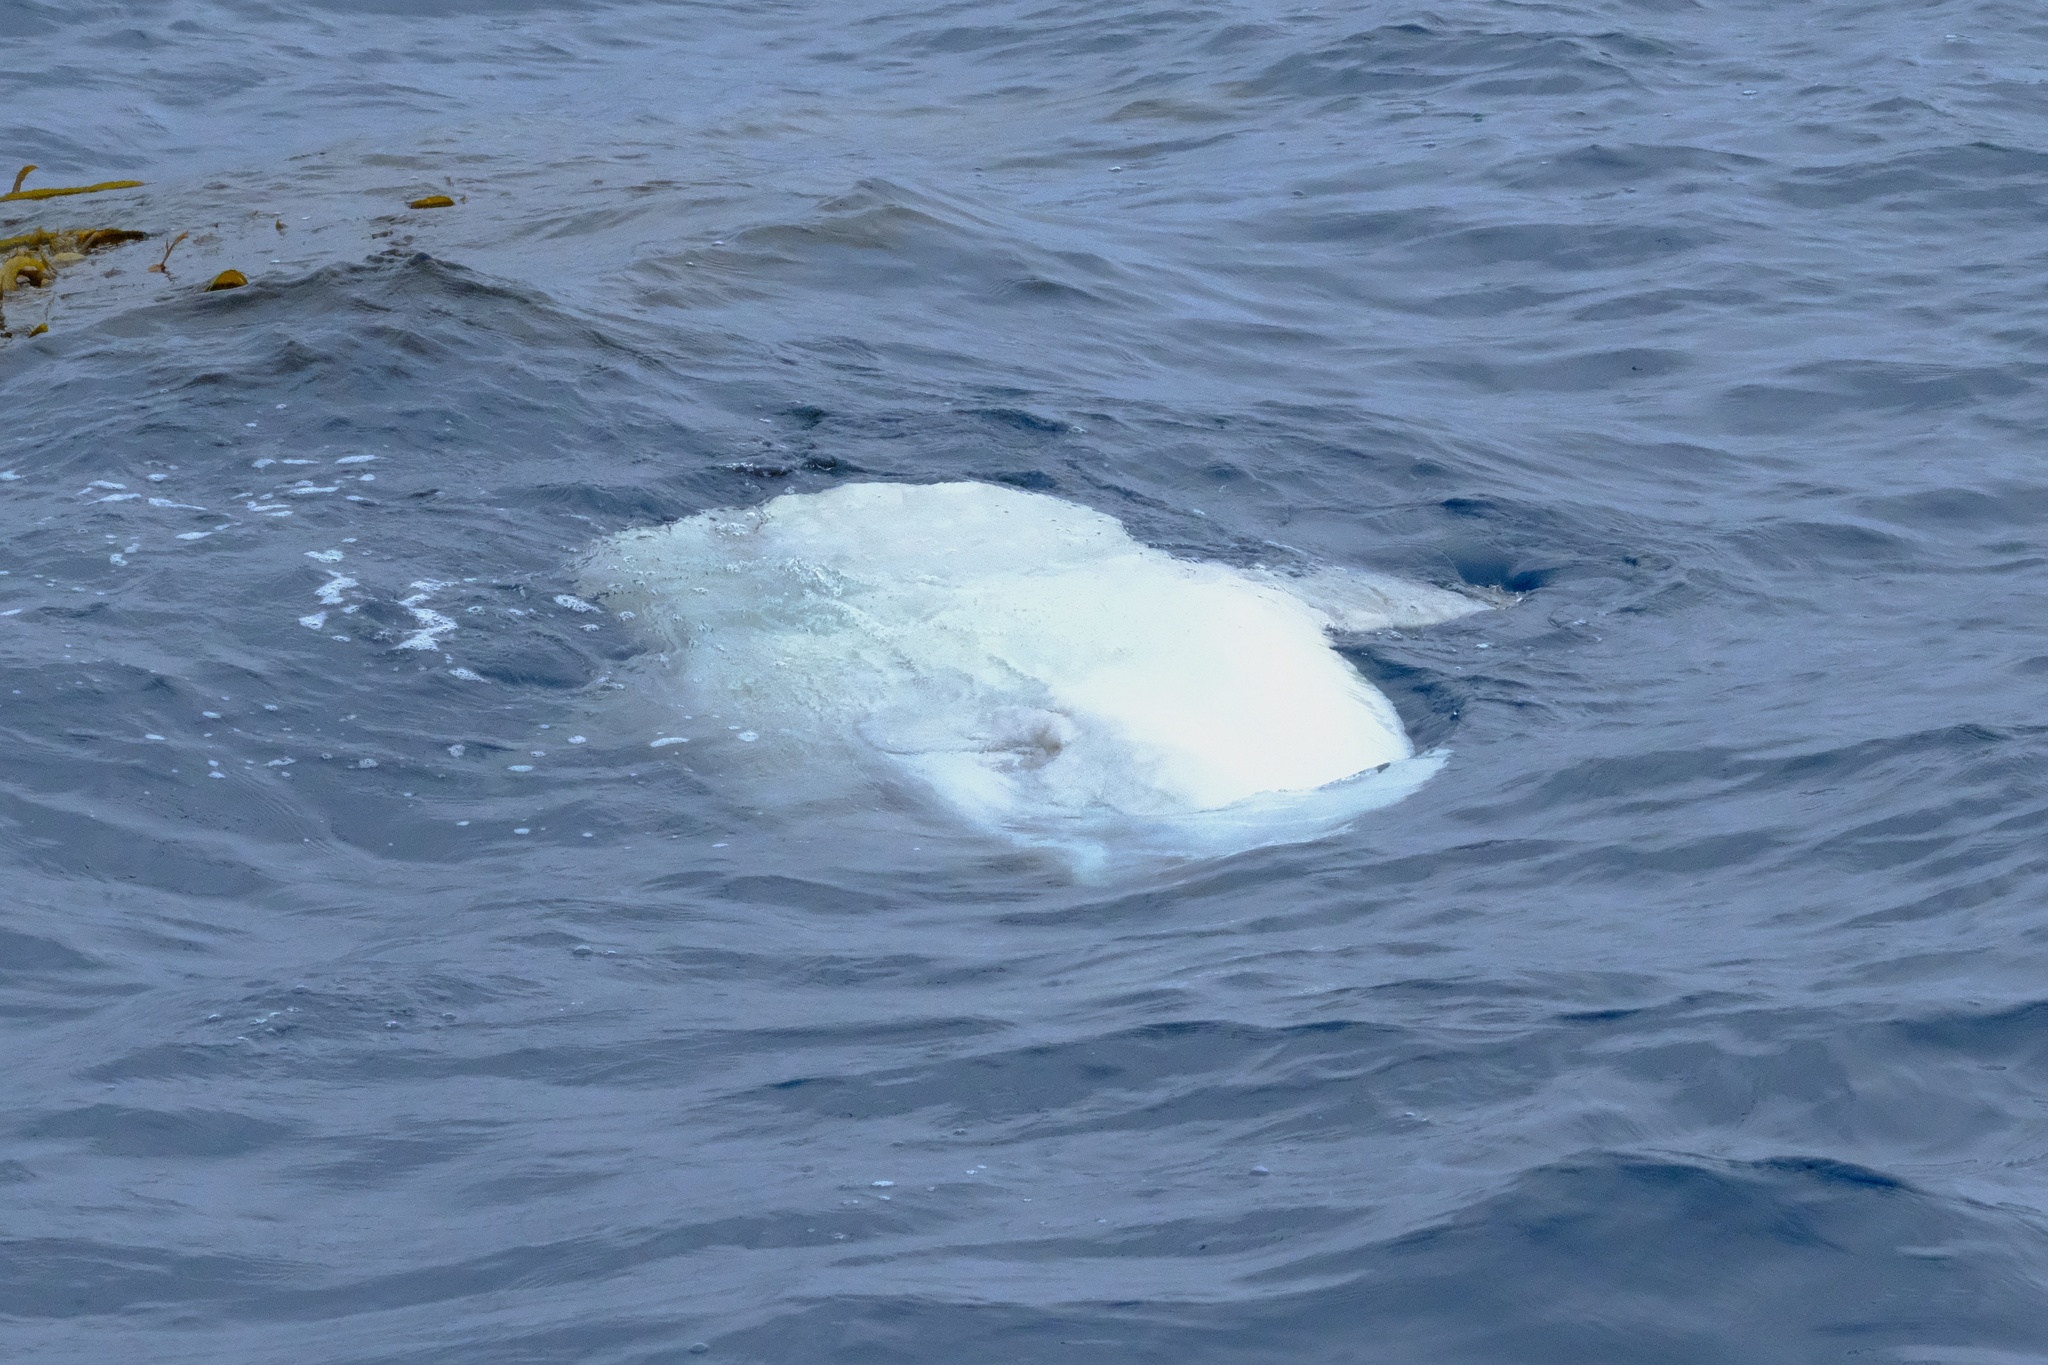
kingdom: Animalia
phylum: Chordata
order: Tetraodontiformes
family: Molidae
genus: Mola
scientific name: Mola mola
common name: Ocean sunfish
